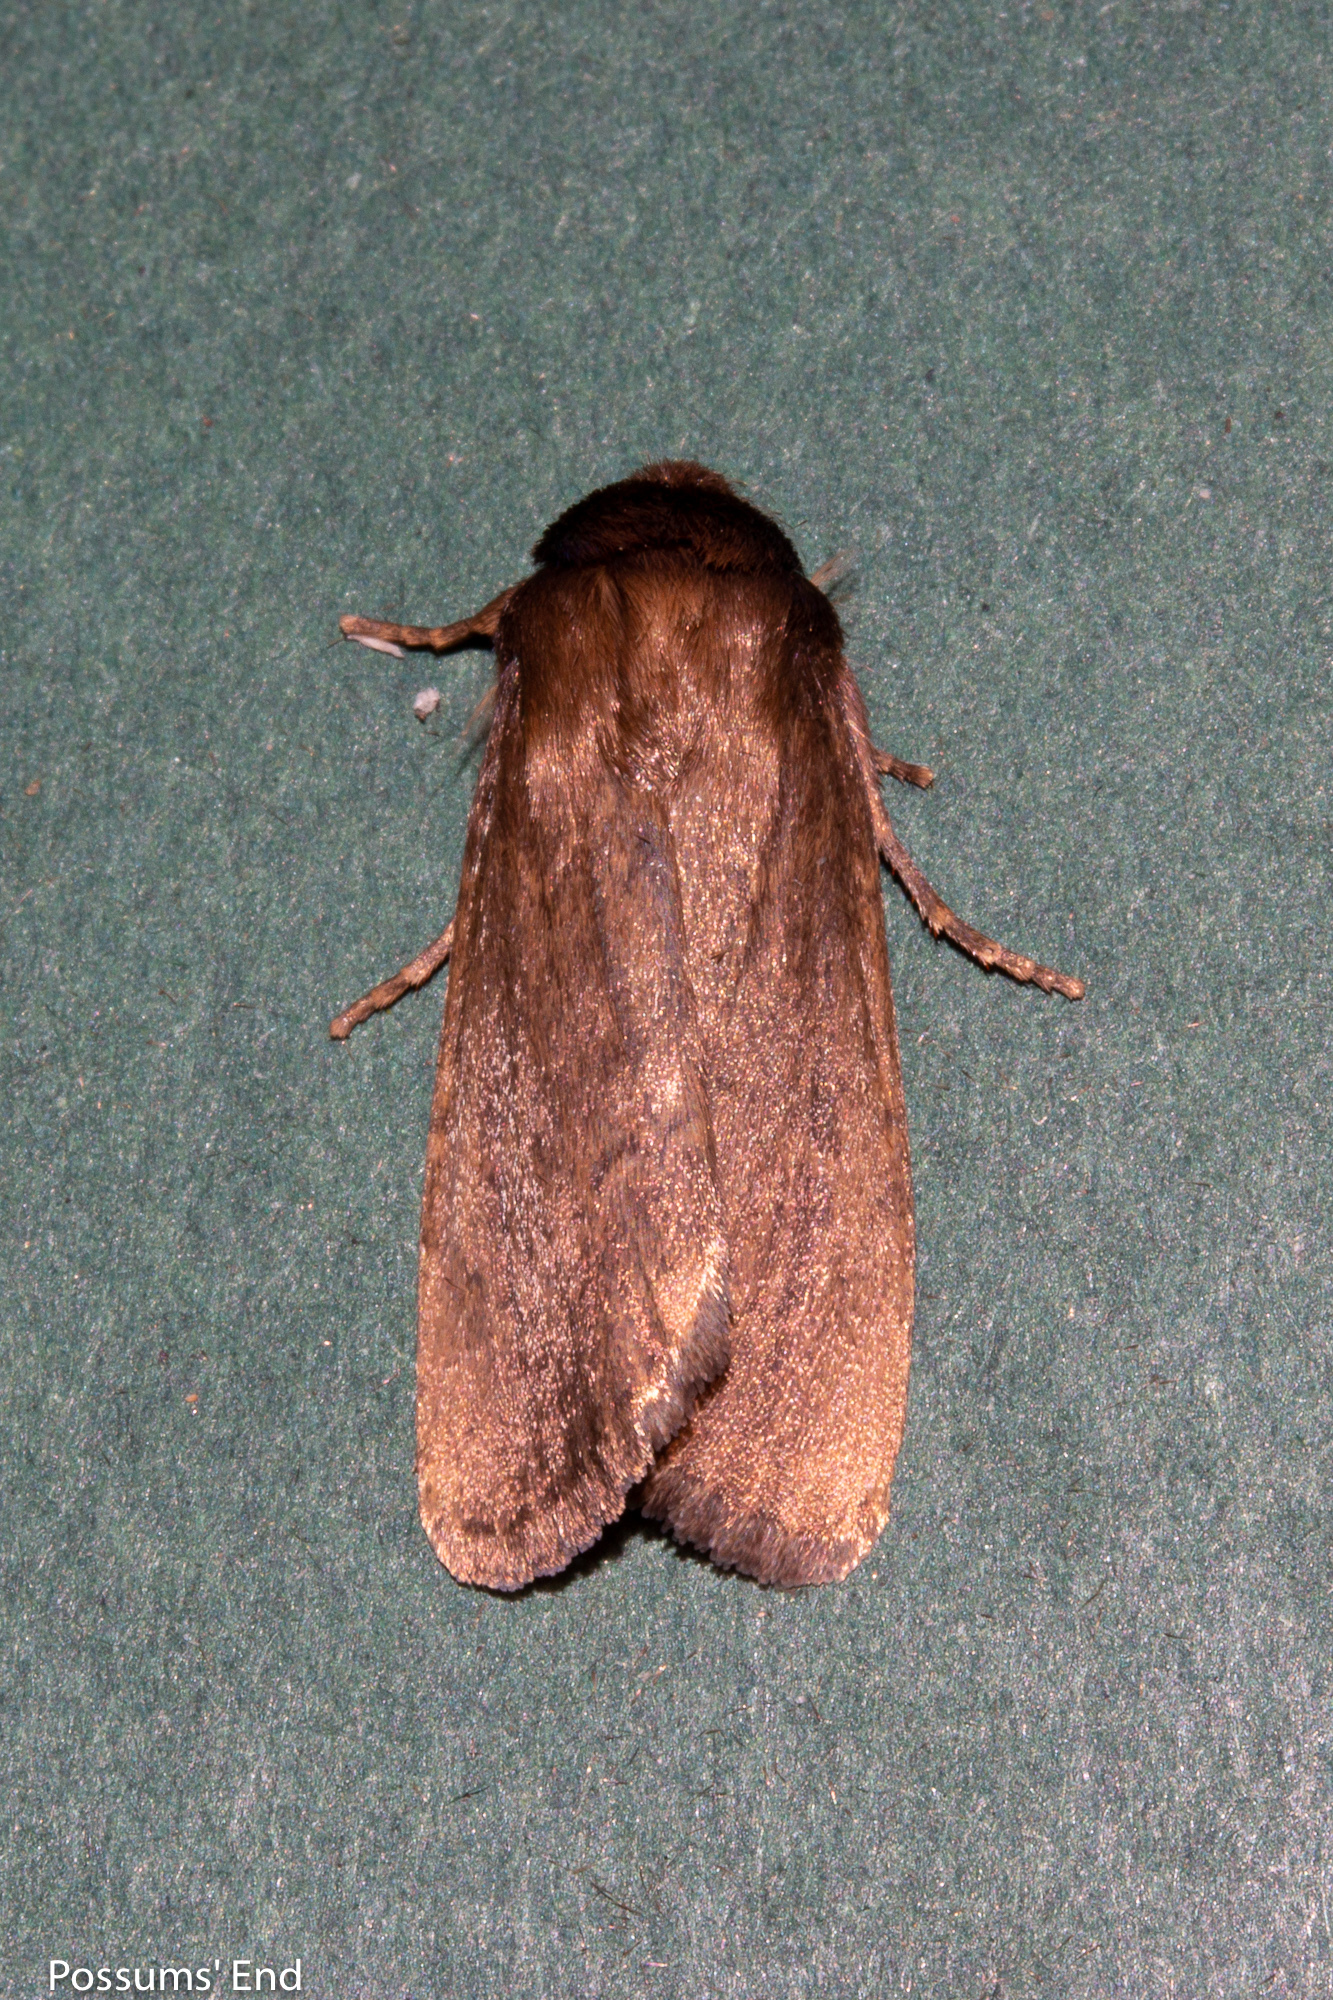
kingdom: Animalia
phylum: Arthropoda
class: Insecta
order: Lepidoptera
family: Noctuidae
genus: Bityla
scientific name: Bityla defigurata
